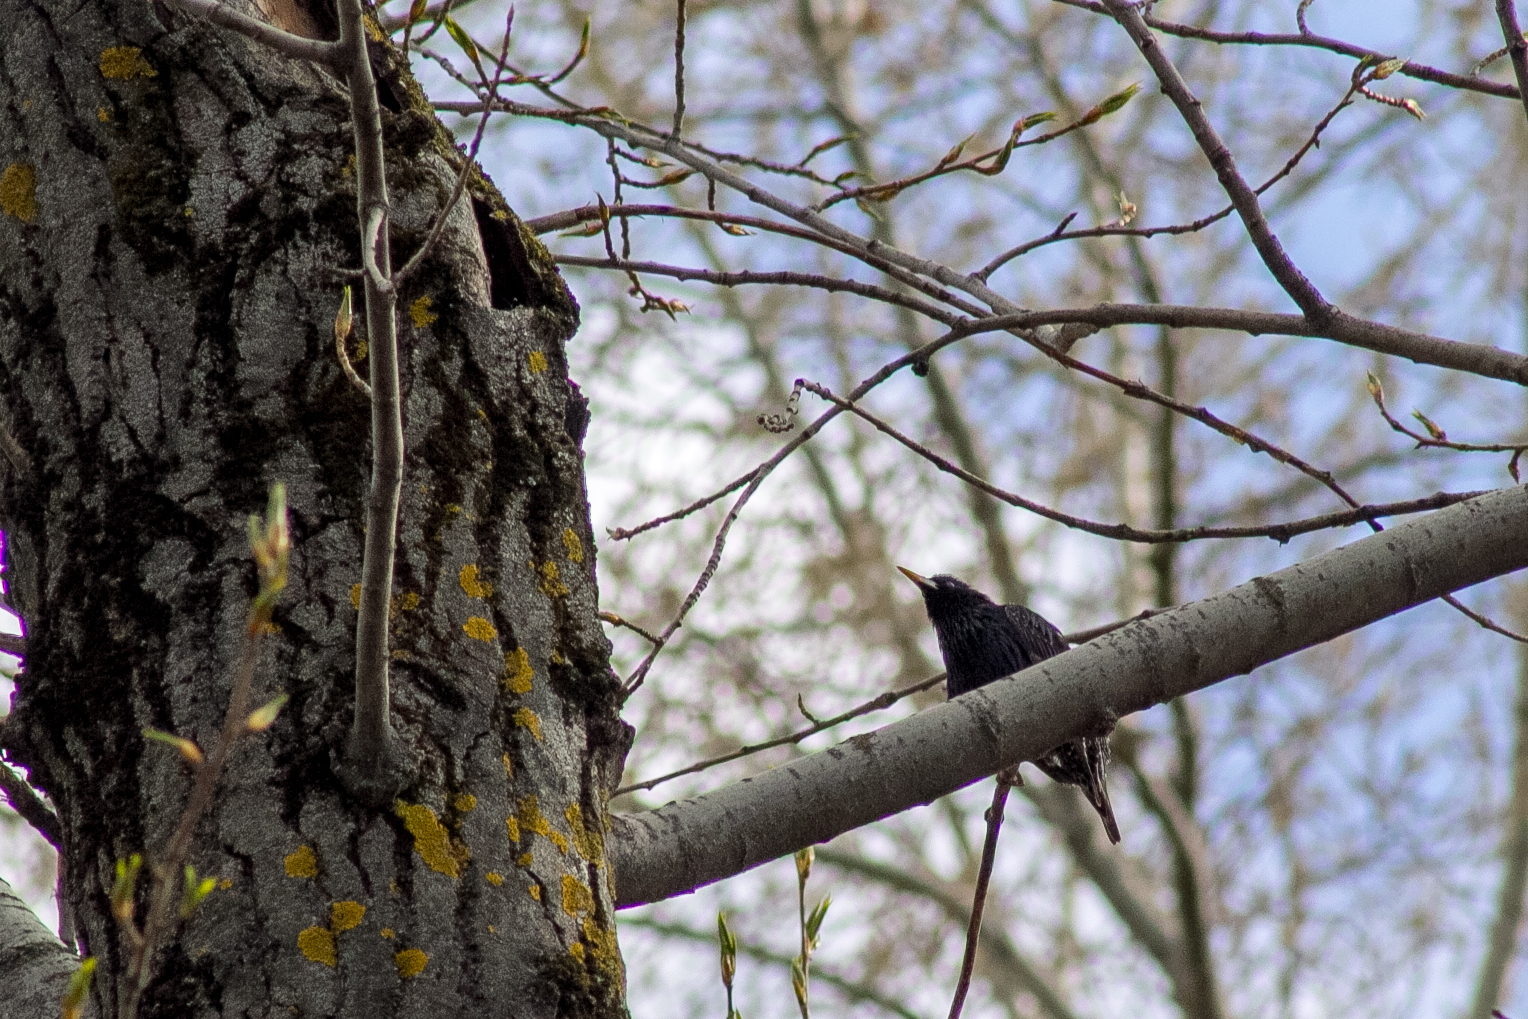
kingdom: Animalia
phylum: Chordata
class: Aves
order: Passeriformes
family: Sturnidae
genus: Sturnus
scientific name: Sturnus vulgaris
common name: Common starling
